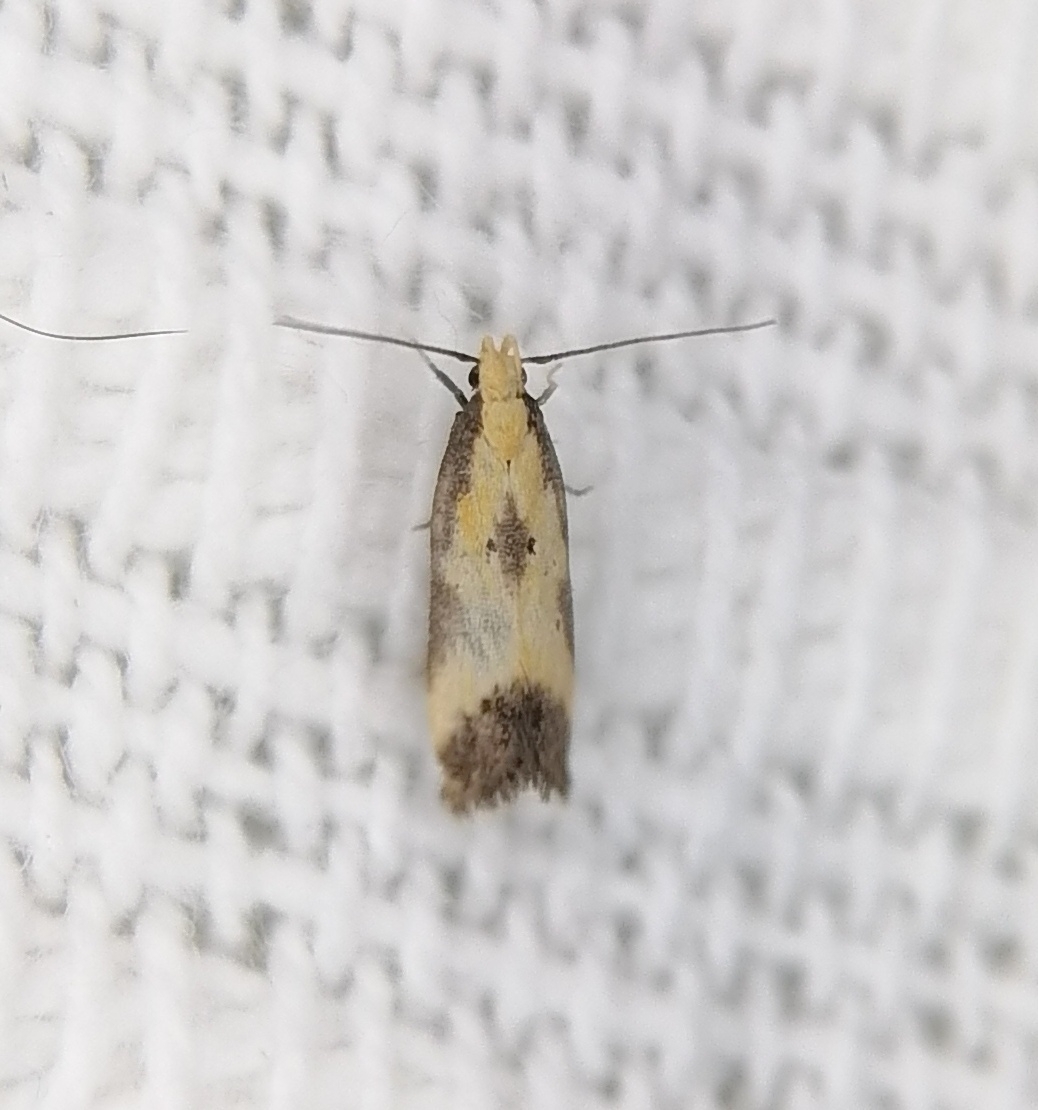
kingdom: Animalia
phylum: Arthropoda
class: Insecta
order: Lepidoptera
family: Gelechiidae
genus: Brachmia
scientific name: Brachmia dimidiella
